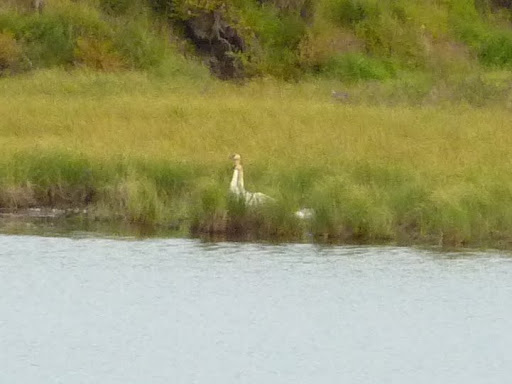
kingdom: Animalia
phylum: Chordata
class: Aves
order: Anseriformes
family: Anatidae
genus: Cygnus
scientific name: Cygnus buccinator
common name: Trumpeter swan
